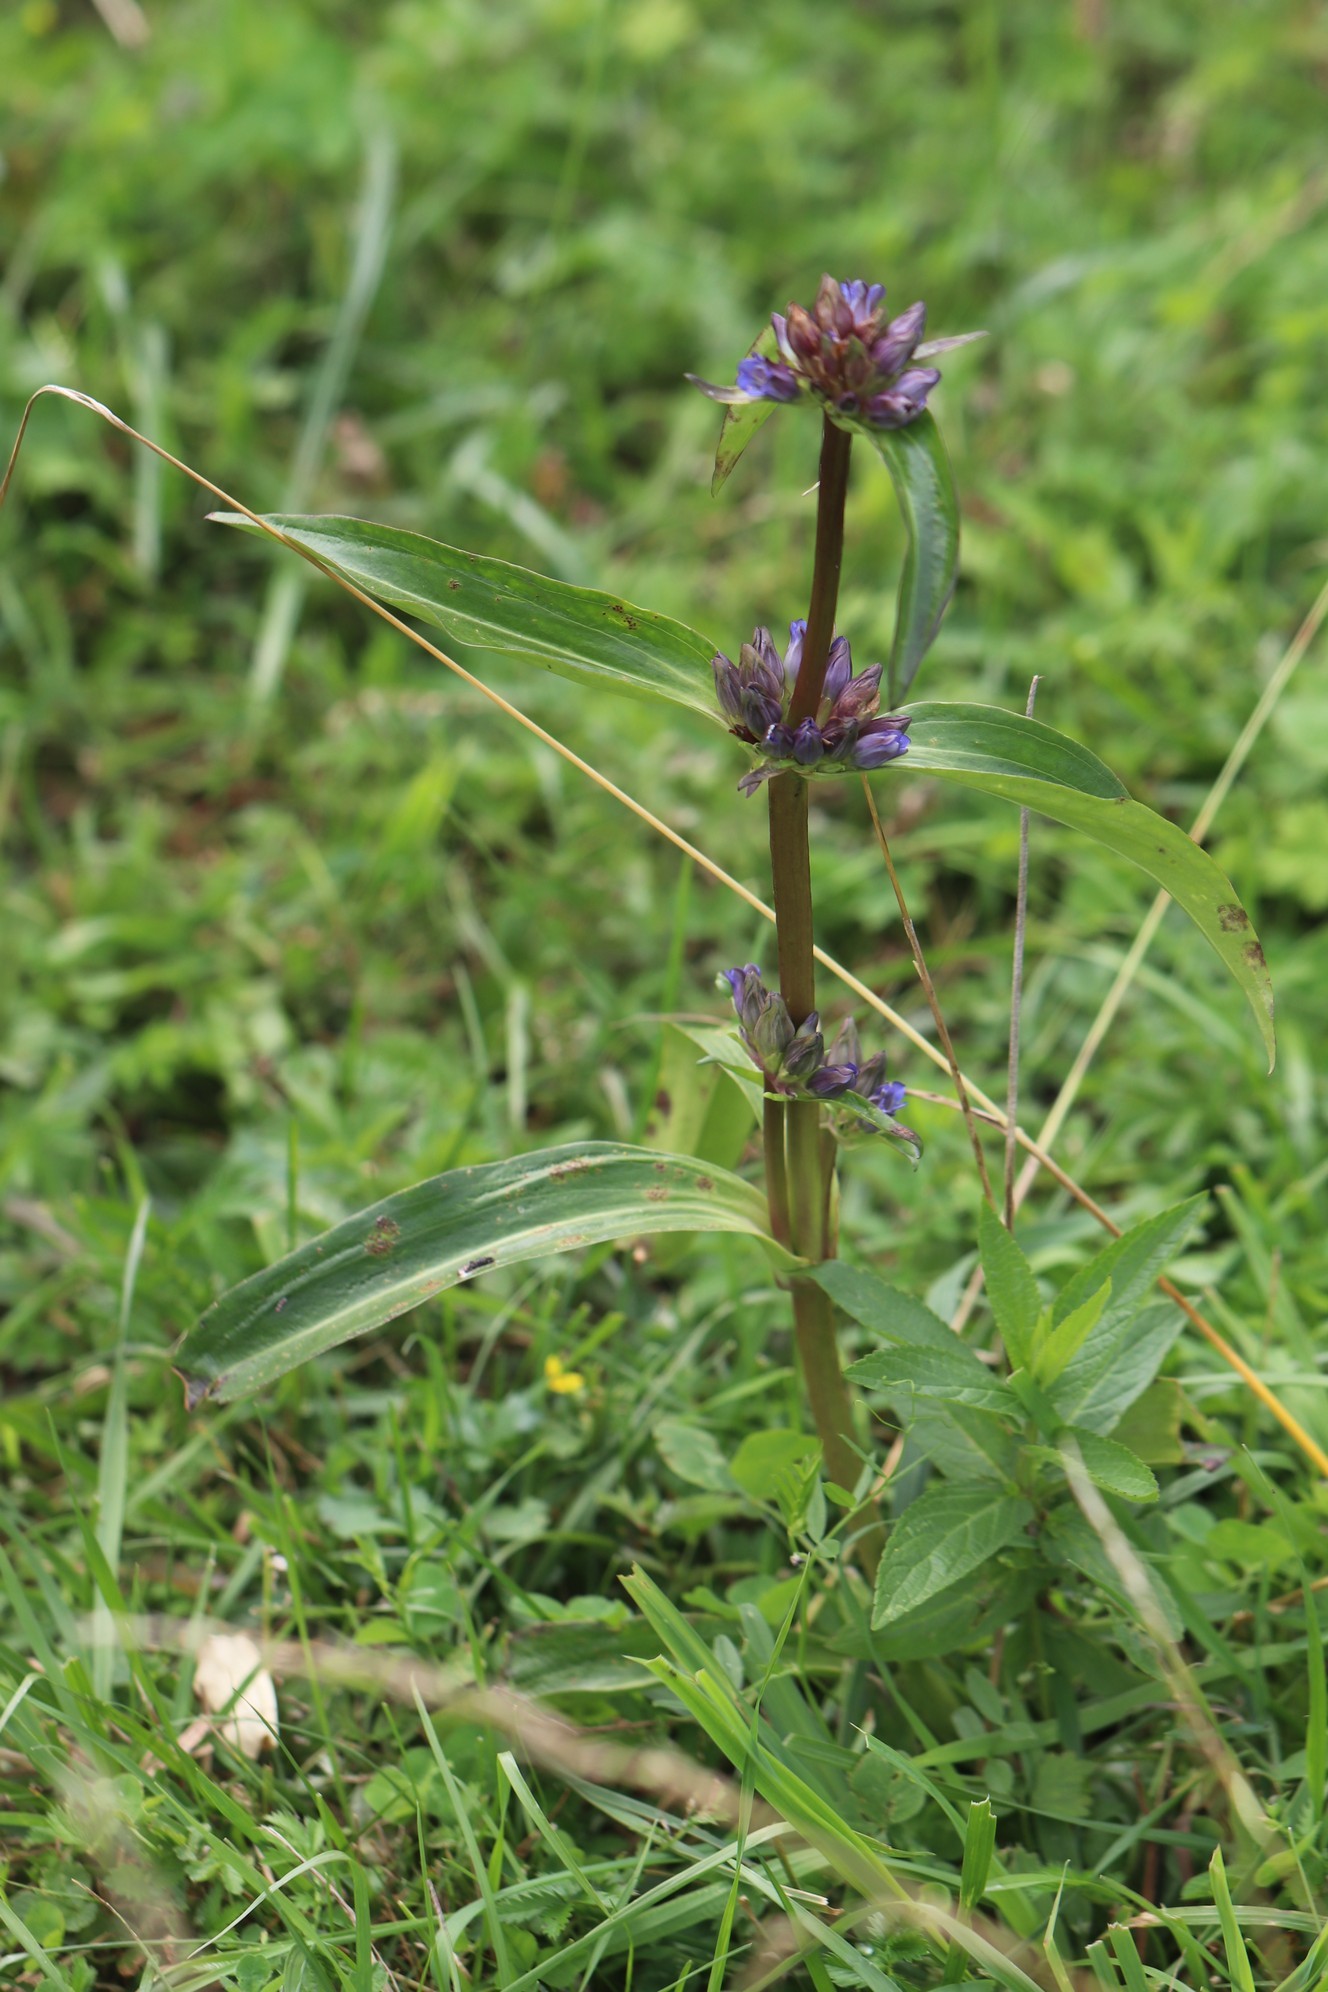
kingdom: Plantae
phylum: Tracheophyta
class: Magnoliopsida
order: Gentianales
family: Gentianaceae
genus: Gentiana
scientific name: Gentiana macrophylla
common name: Large-leaf gentian
